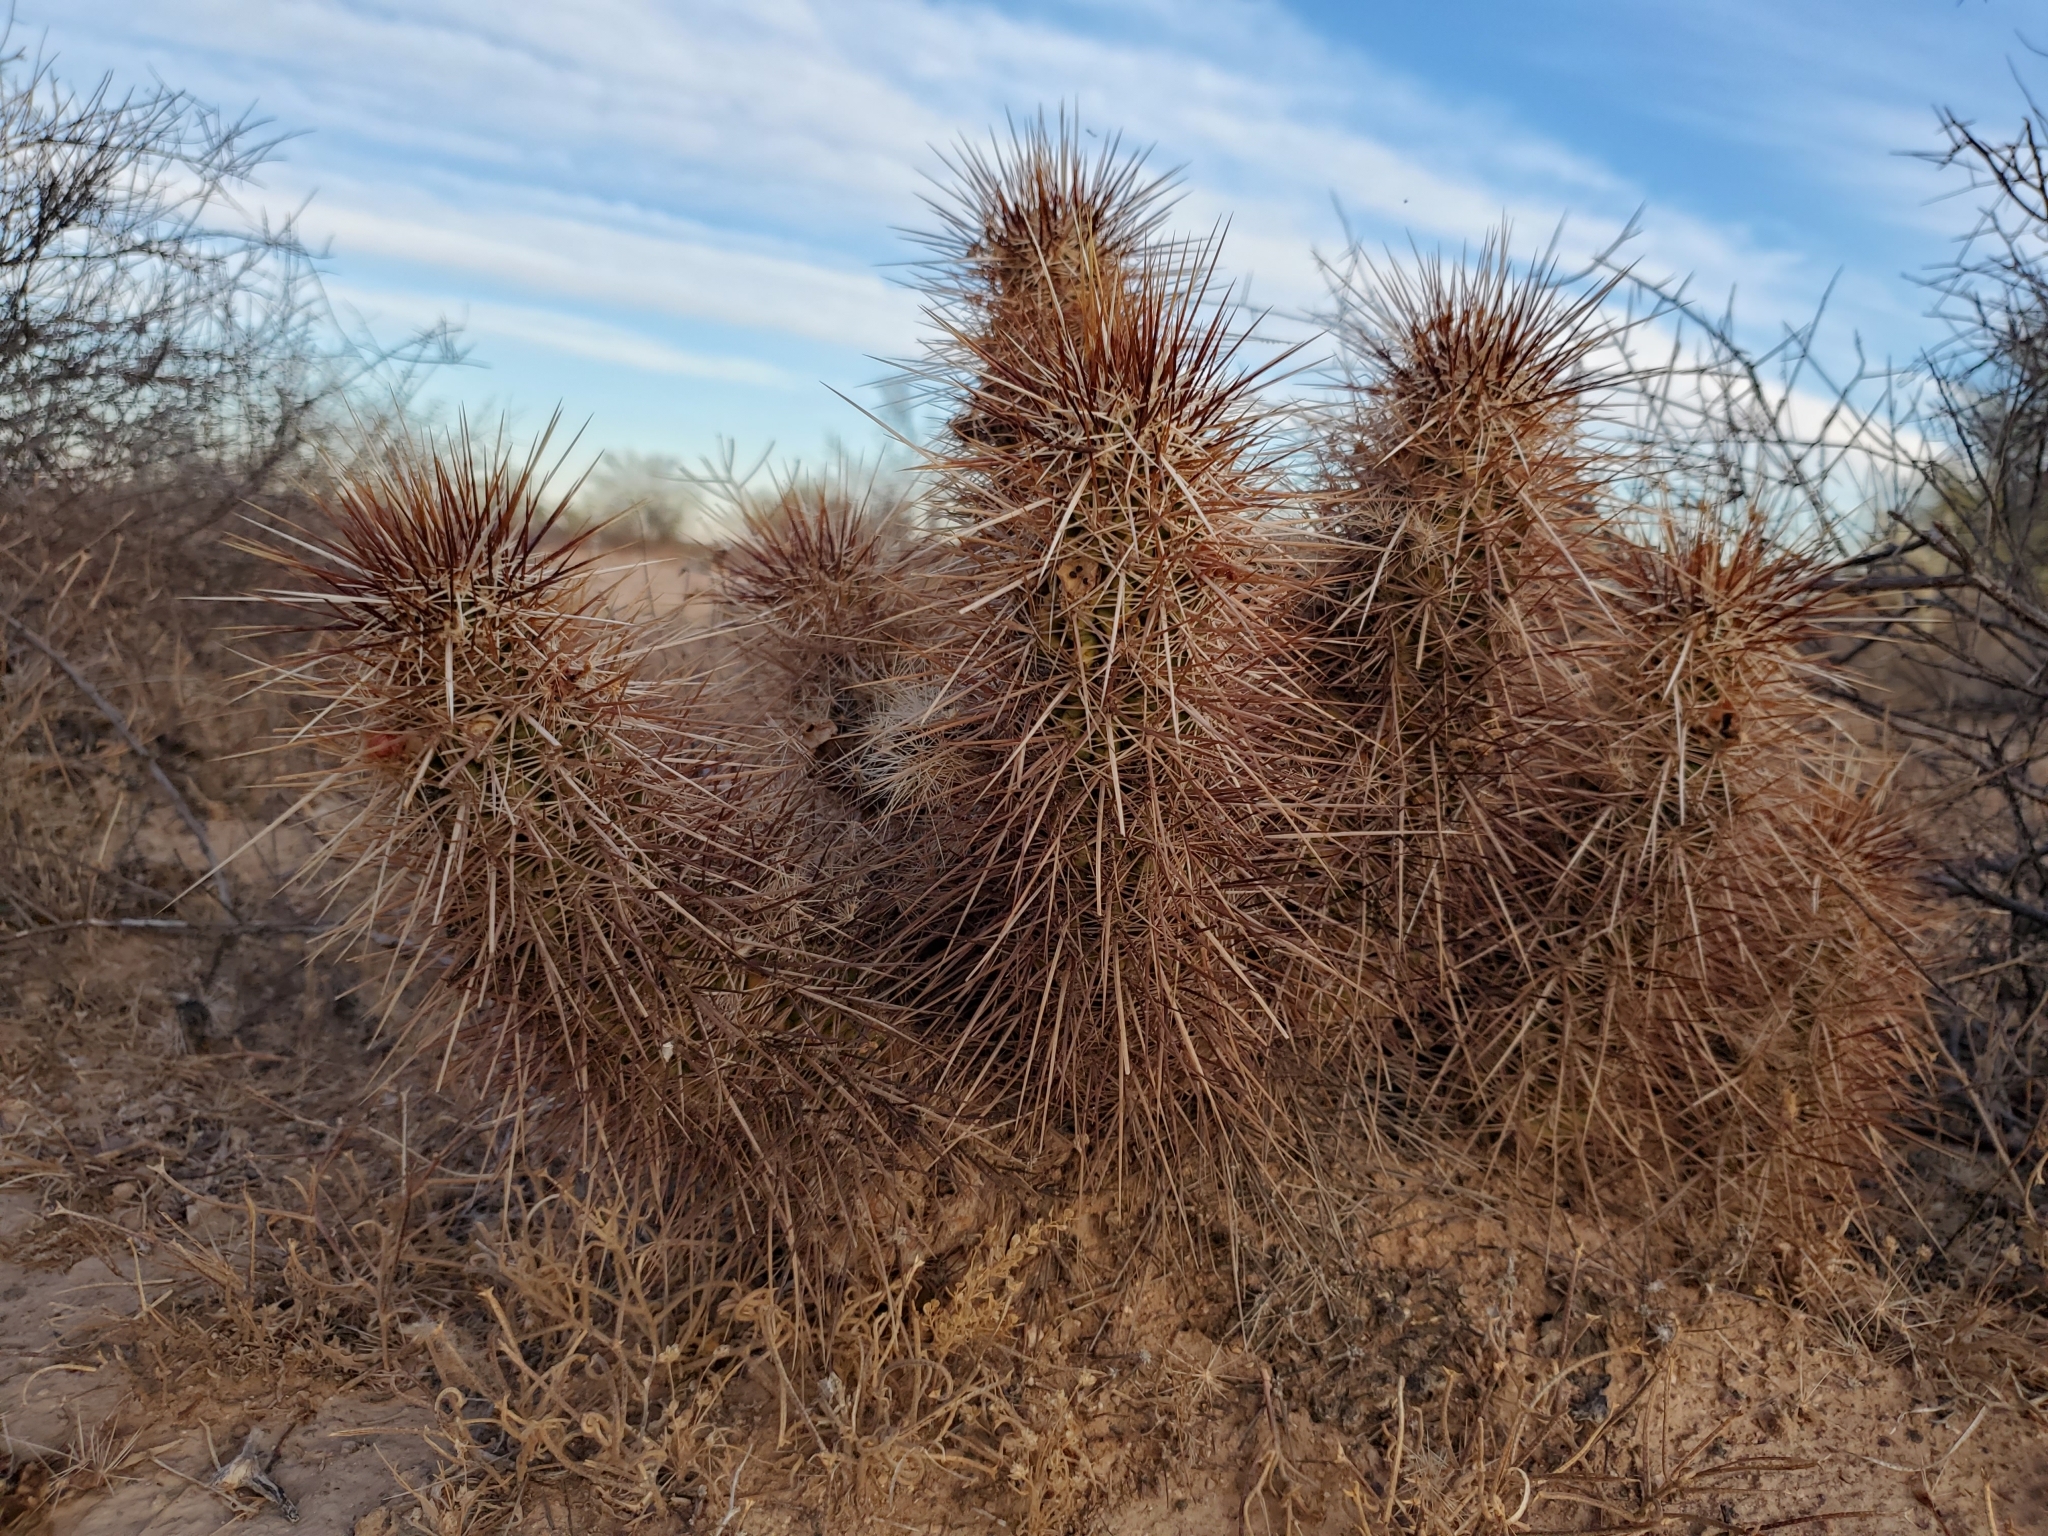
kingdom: Plantae
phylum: Tracheophyta
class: Magnoliopsida
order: Caryophyllales
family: Cactaceae
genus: Echinocereus
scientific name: Echinocereus engelmannii
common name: Engelmann's hedgehog cactus
